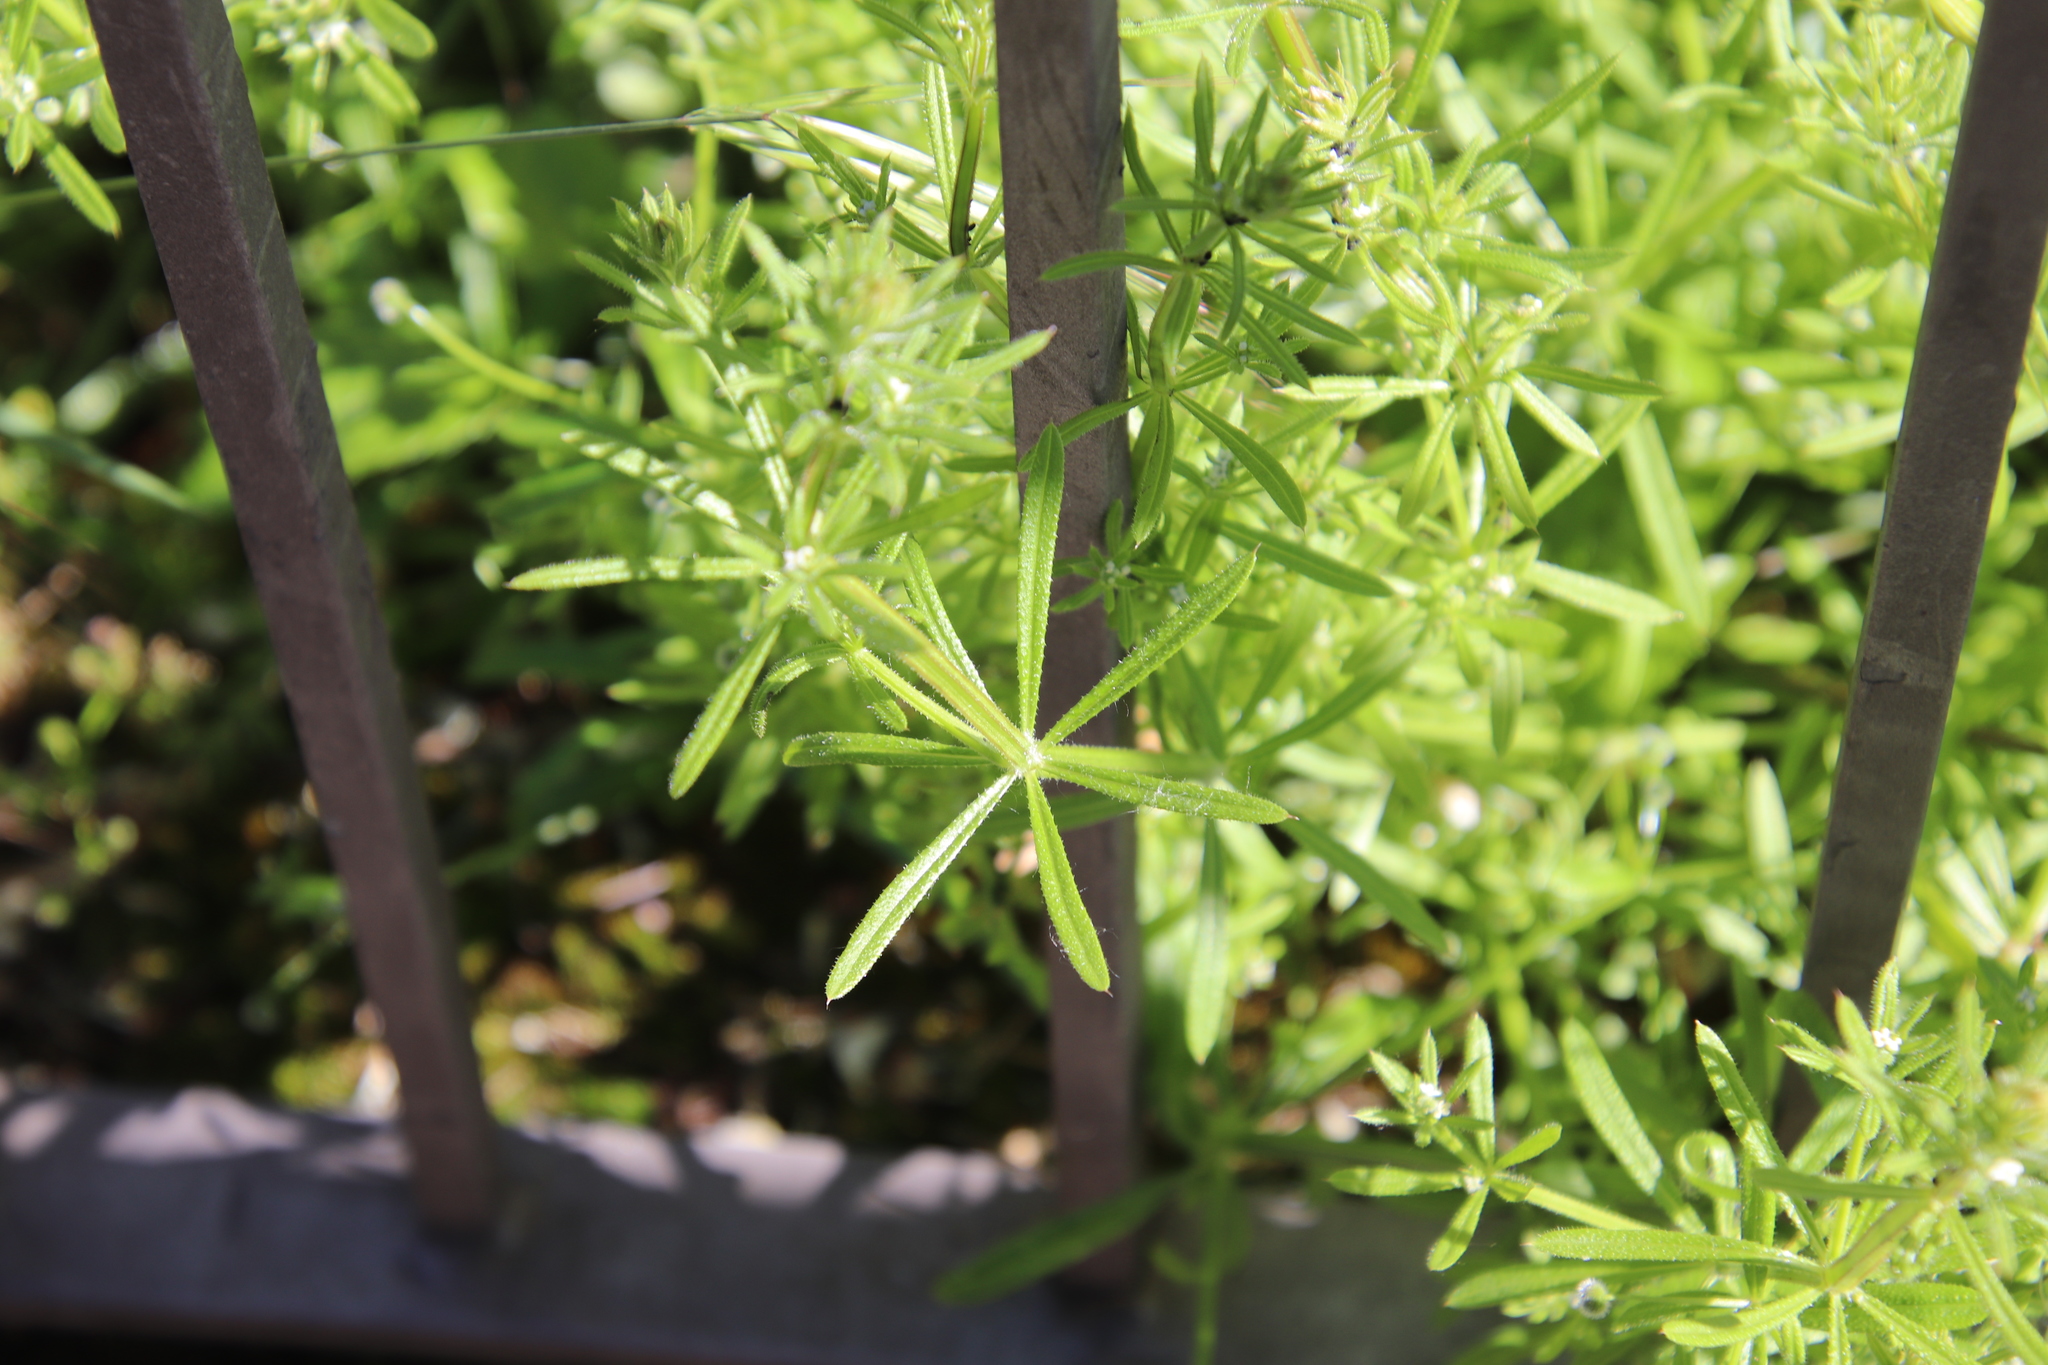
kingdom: Plantae
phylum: Tracheophyta
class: Magnoliopsida
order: Gentianales
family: Rubiaceae
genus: Galium
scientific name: Galium aparine
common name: Cleavers
